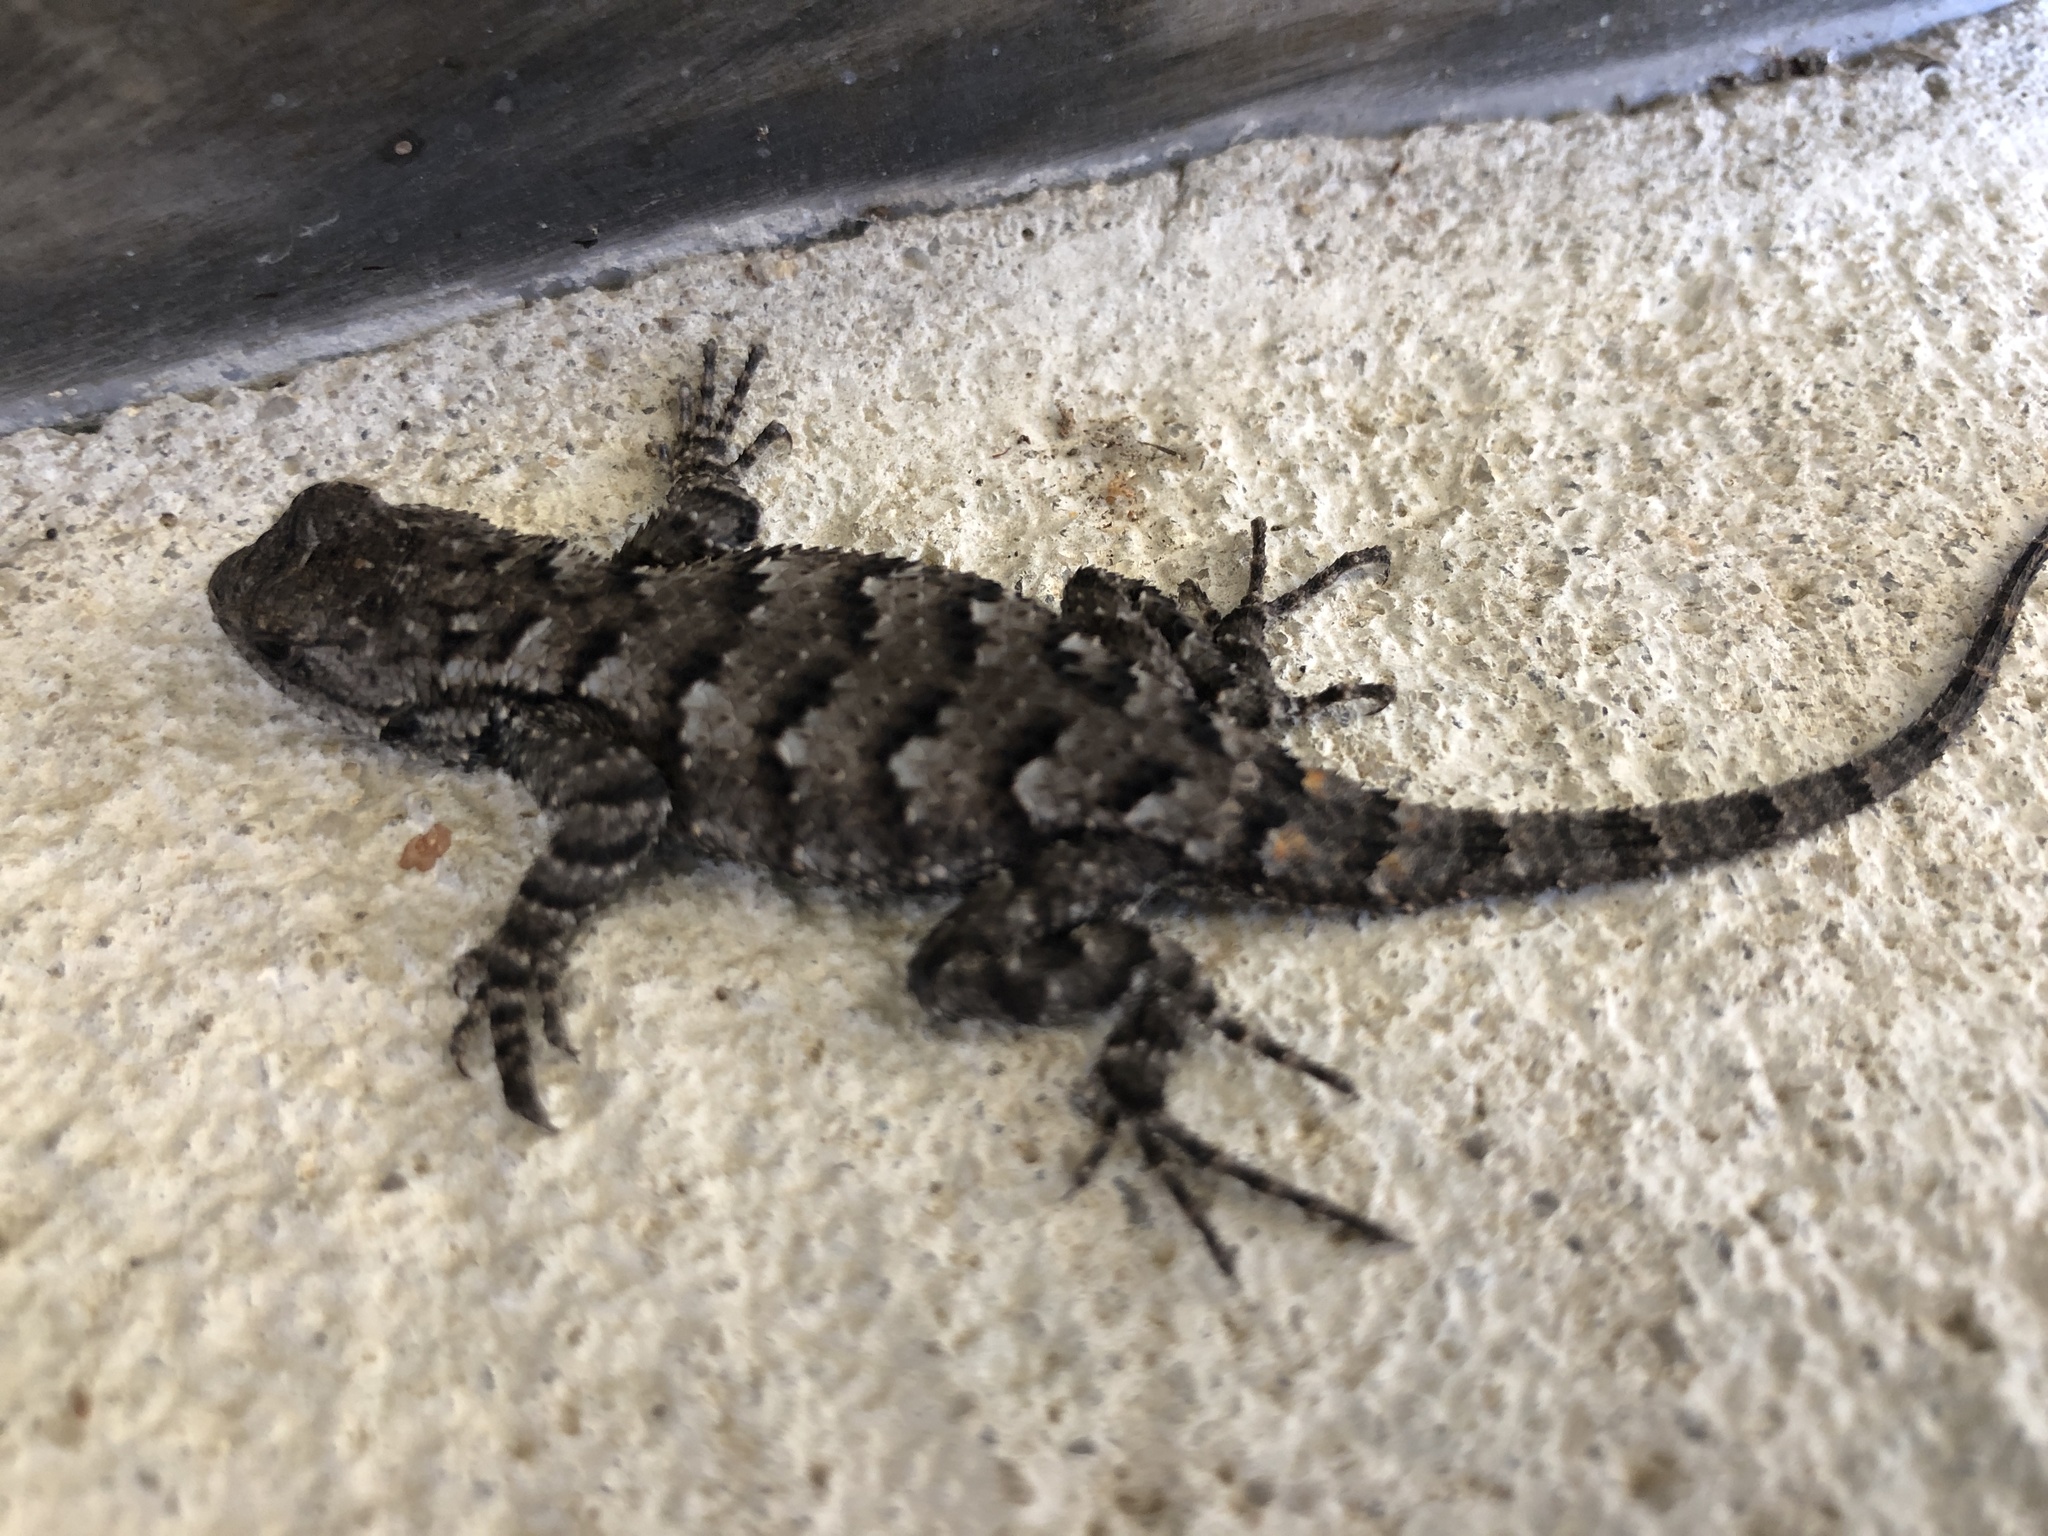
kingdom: Animalia
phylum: Chordata
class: Squamata
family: Phrynosomatidae
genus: Sceloporus
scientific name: Sceloporus undulatus
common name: Eastern fence lizard
